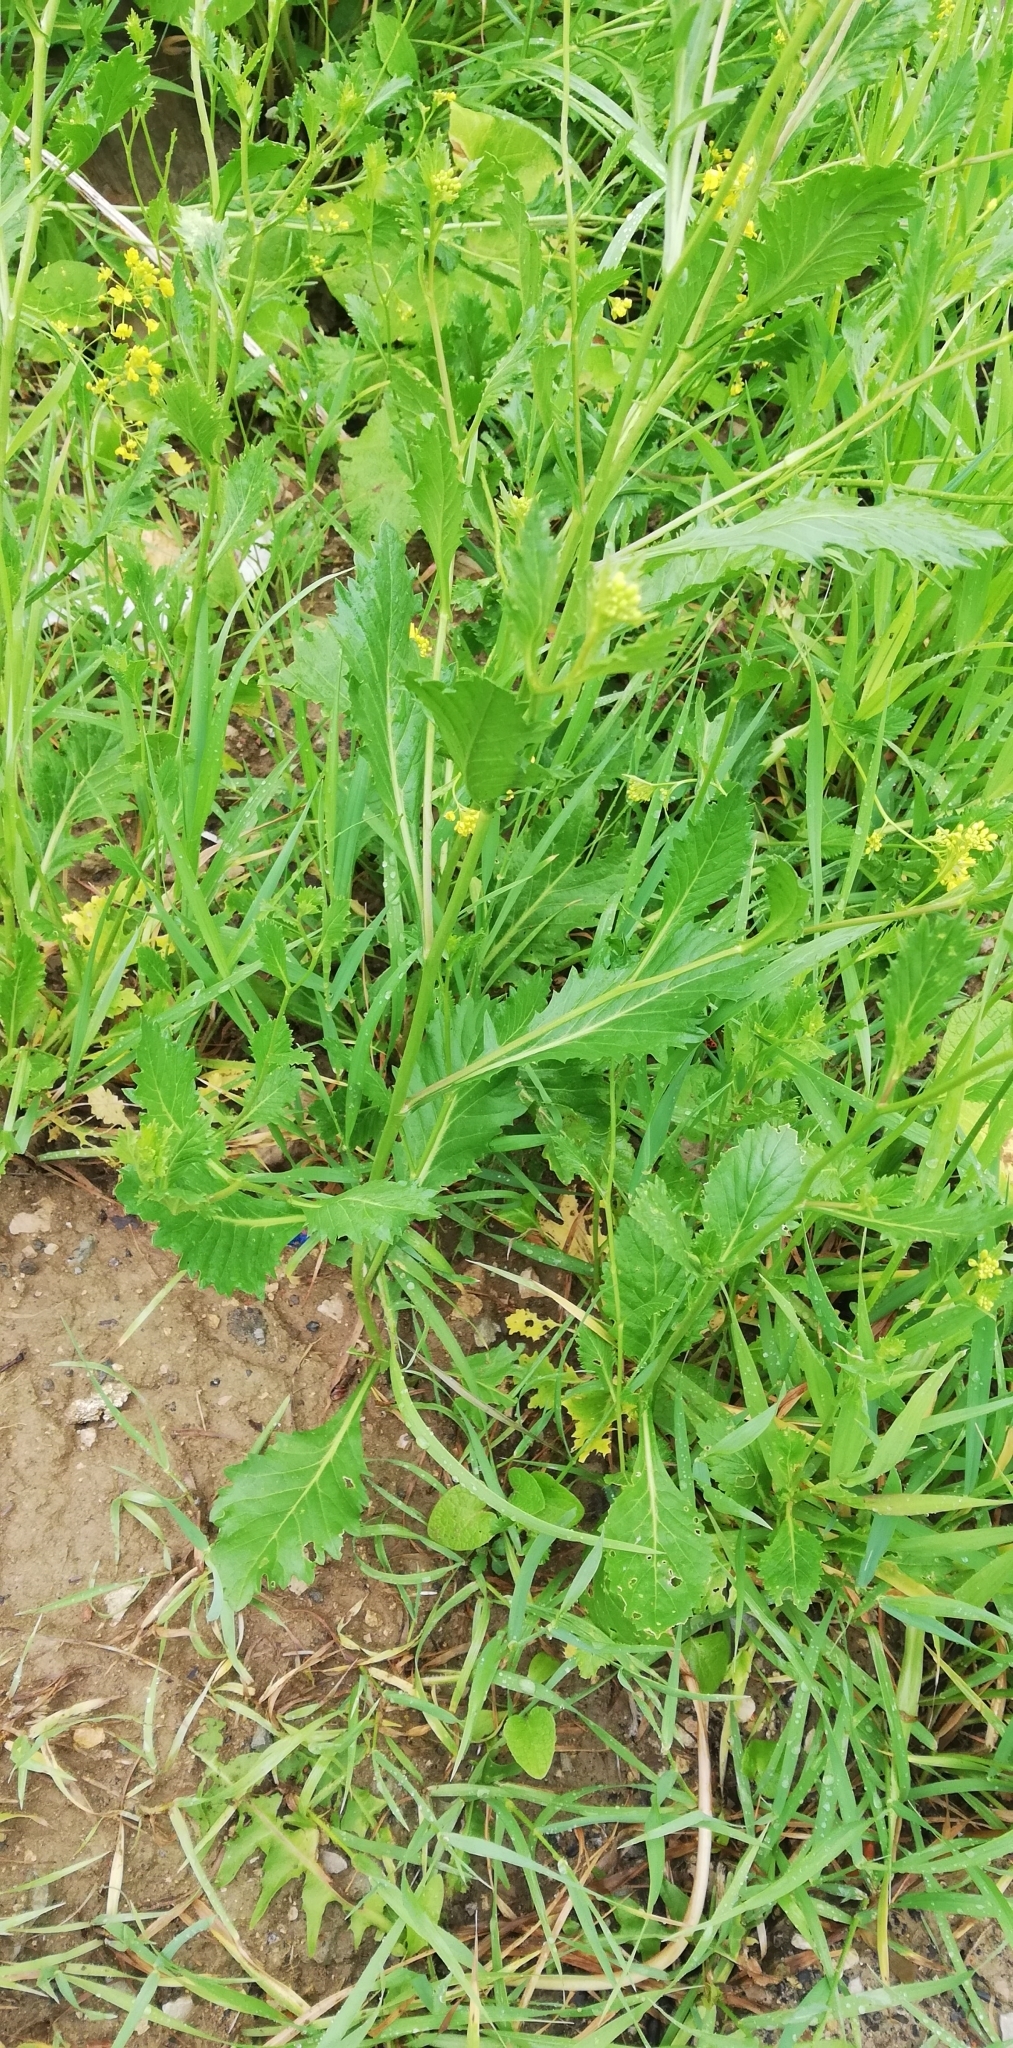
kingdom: Plantae
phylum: Tracheophyta
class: Magnoliopsida
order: Brassicales
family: Brassicaceae
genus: Rorippa
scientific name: Rorippa sylvestris
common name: Creeping yellowcress
